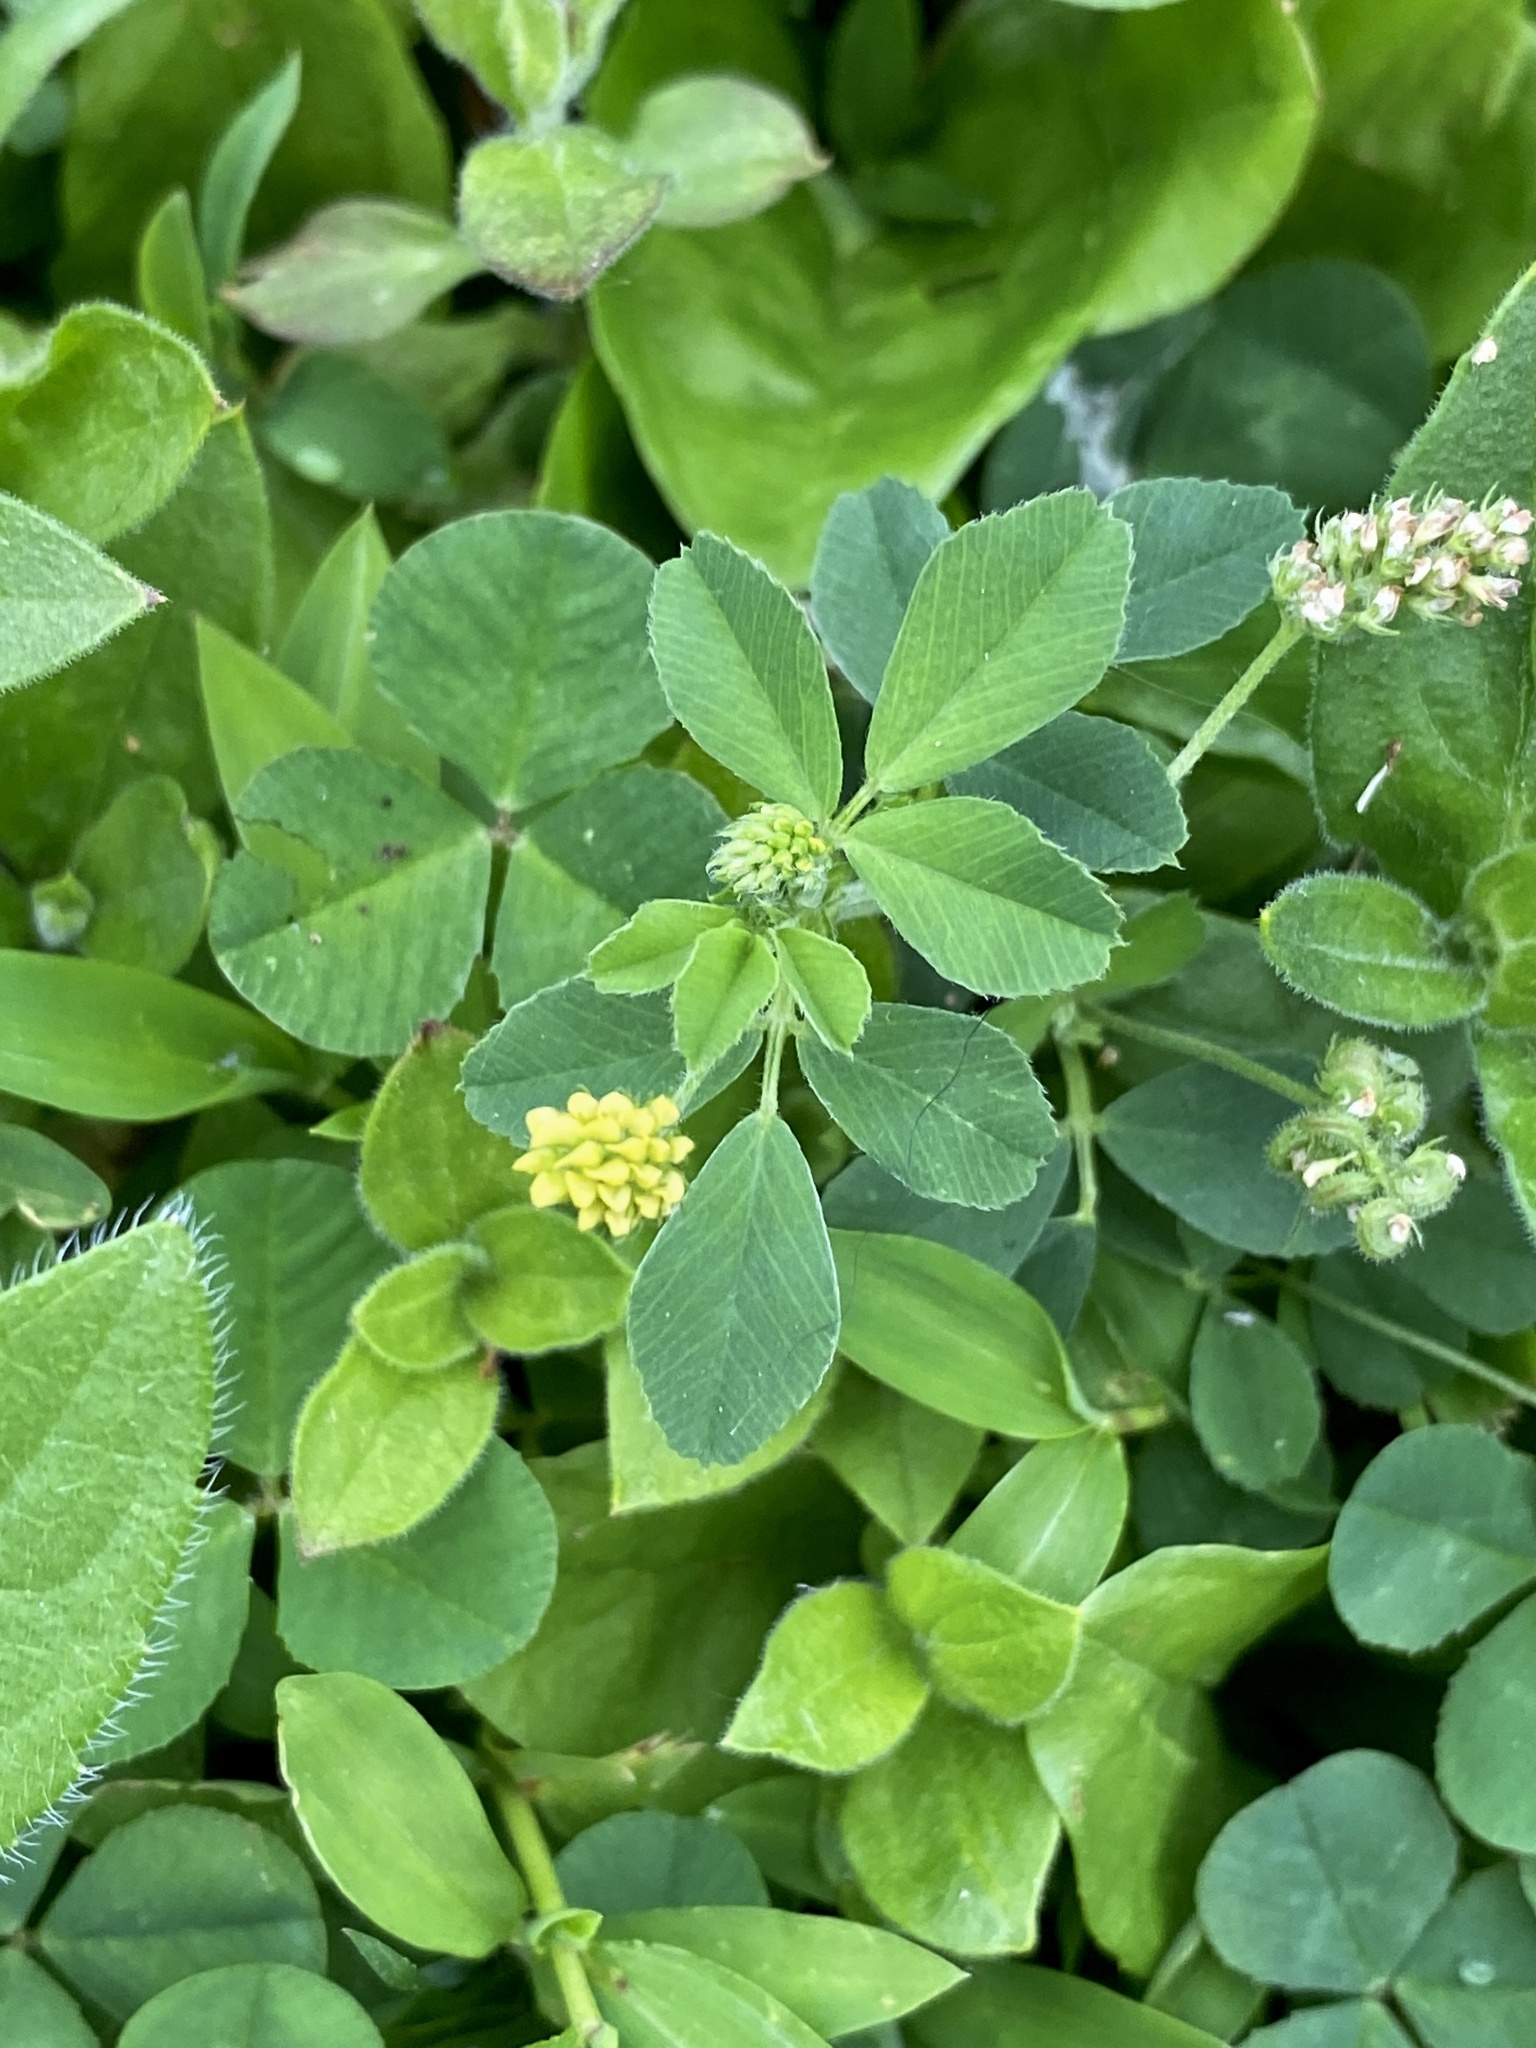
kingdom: Plantae
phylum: Tracheophyta
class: Magnoliopsida
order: Fabales
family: Fabaceae
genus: Medicago
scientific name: Medicago lupulina
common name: Black medick
